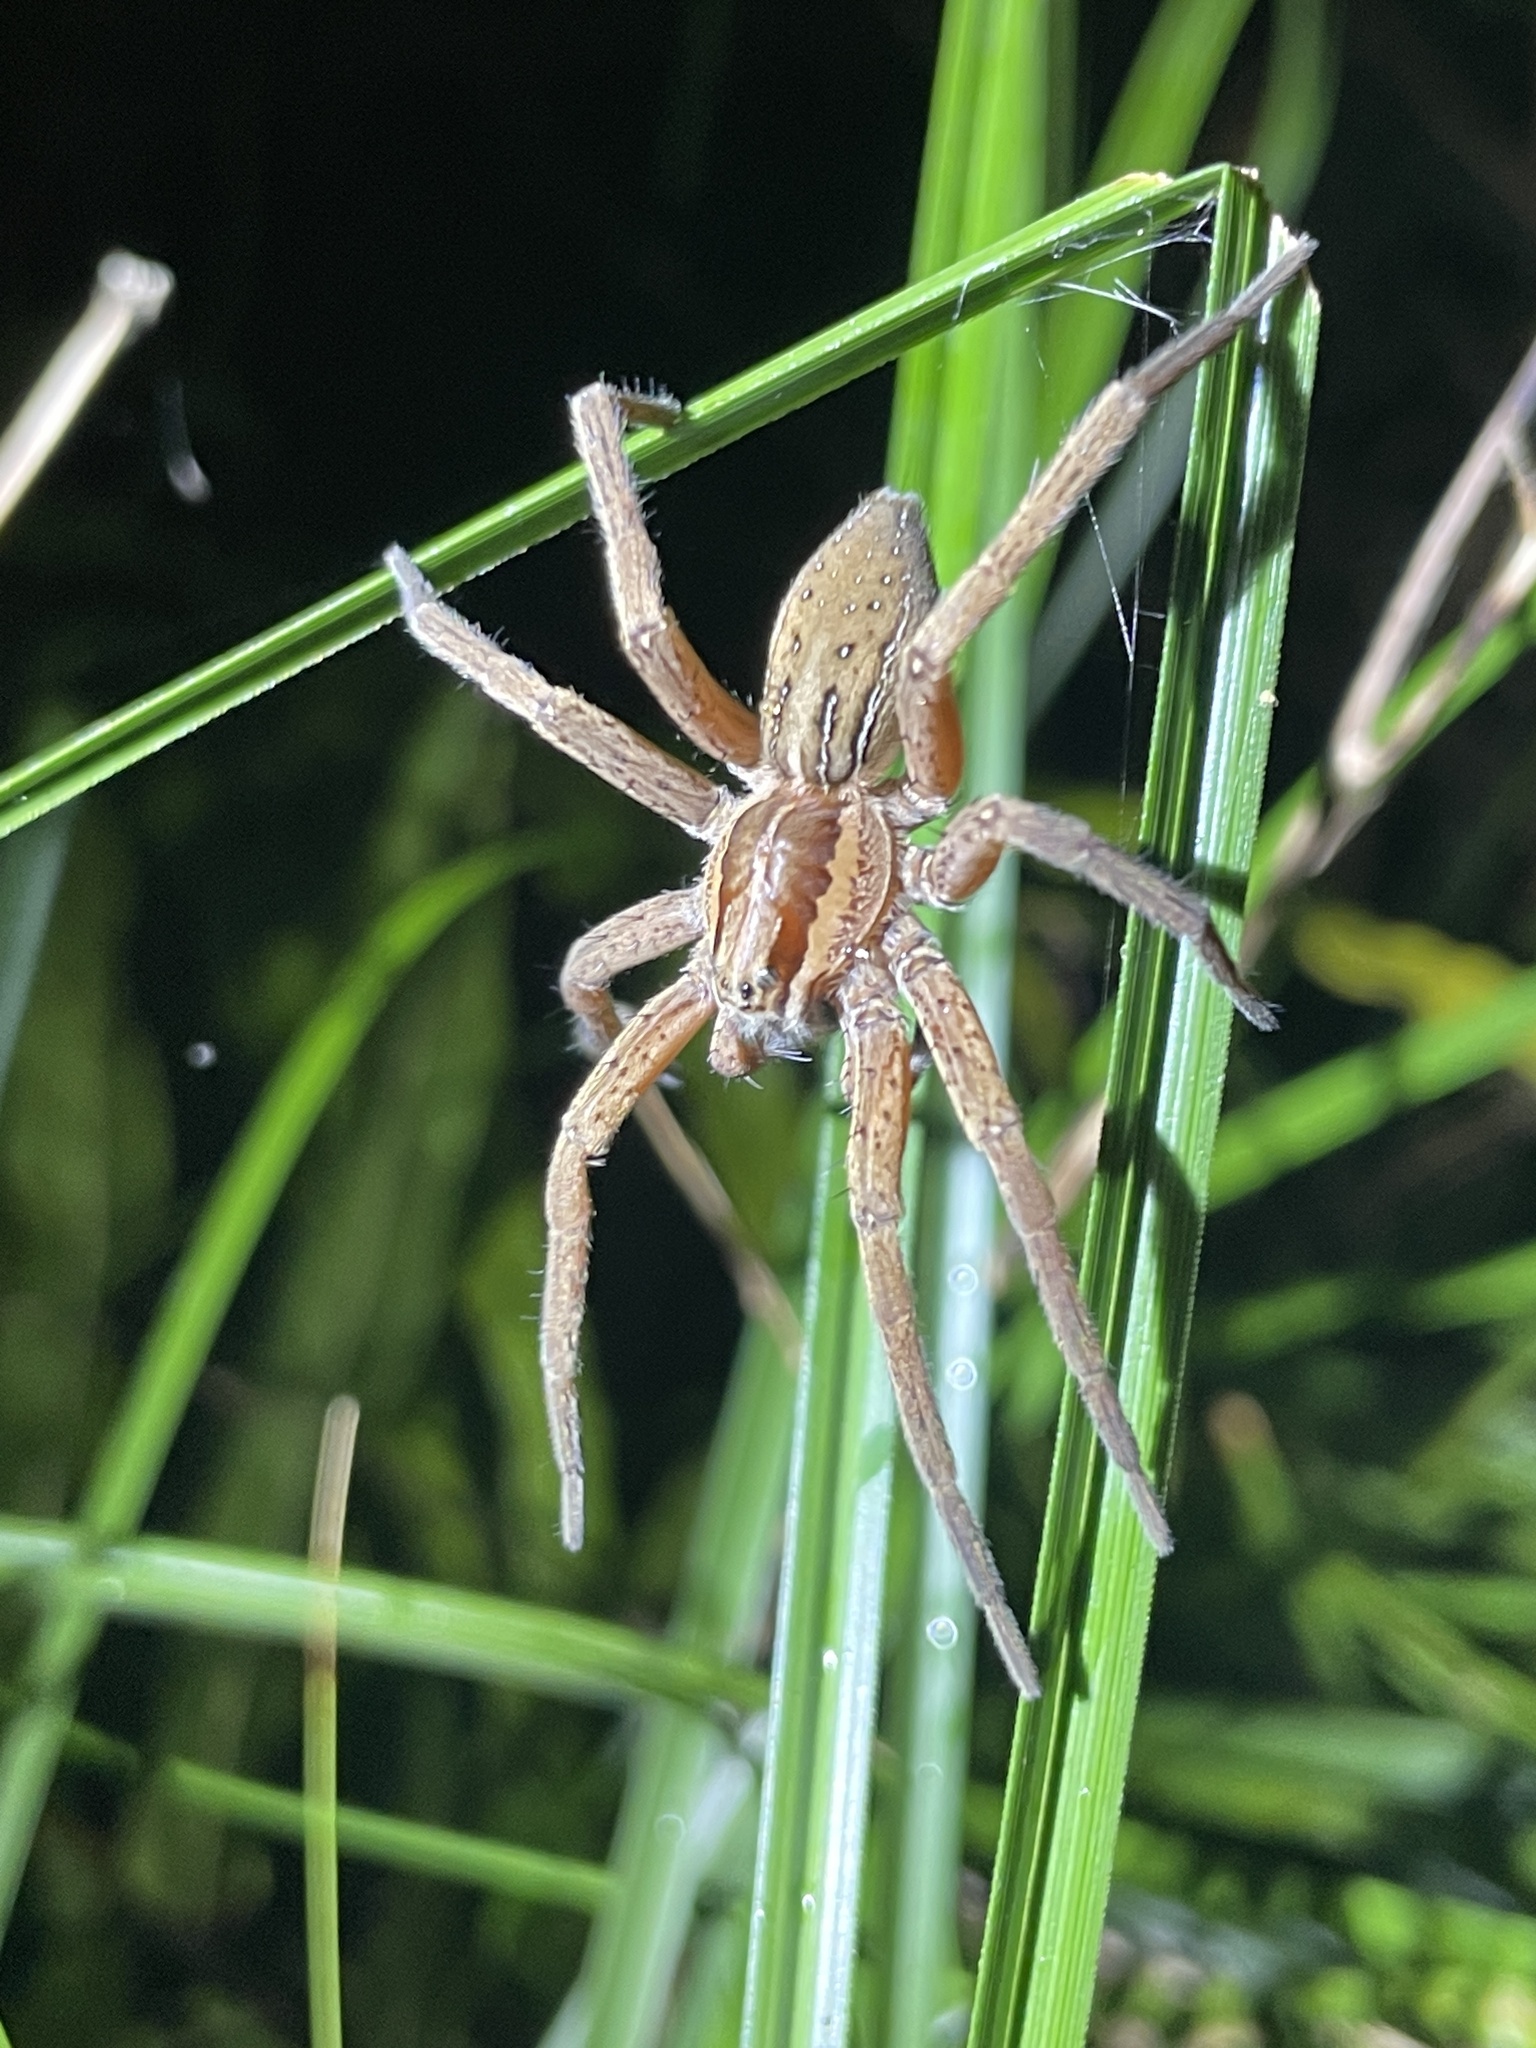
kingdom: Animalia
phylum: Arthropoda
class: Arachnida
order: Araneae
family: Pisauridae
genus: Dolomedes
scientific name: Dolomedes minor
